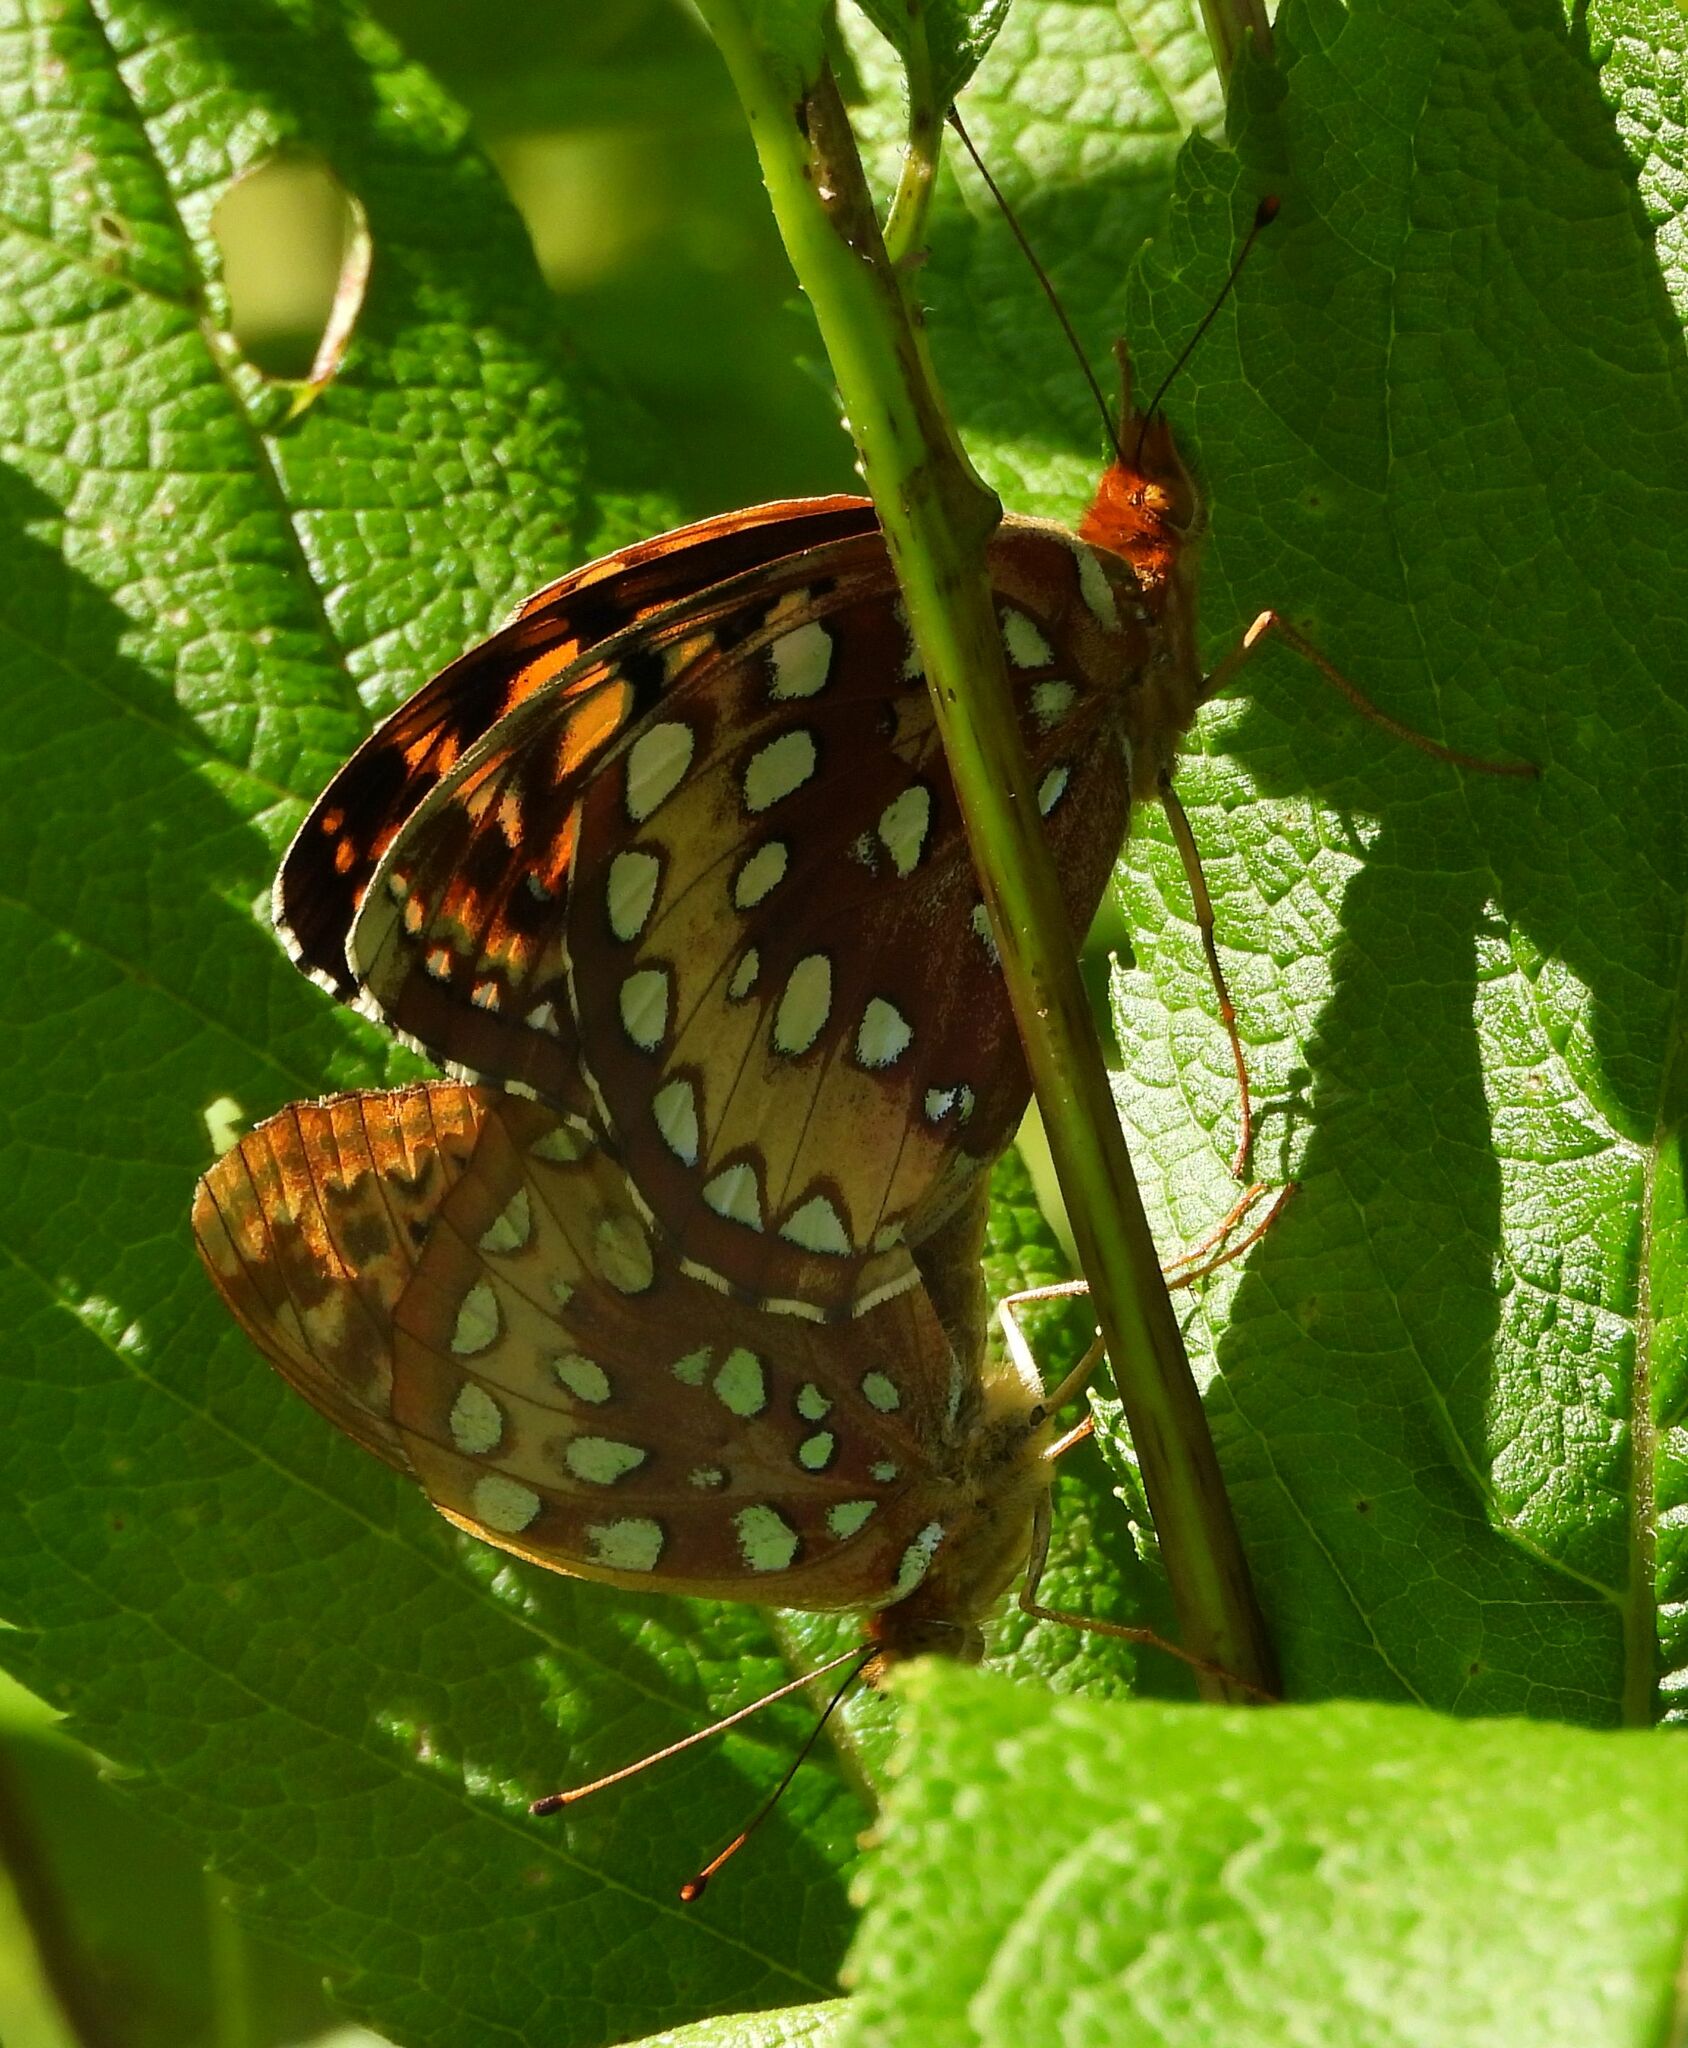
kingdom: Animalia
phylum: Arthropoda
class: Insecta
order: Lepidoptera
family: Nymphalidae
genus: Speyeria
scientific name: Speyeria cybele
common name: Great spangled fritillary
